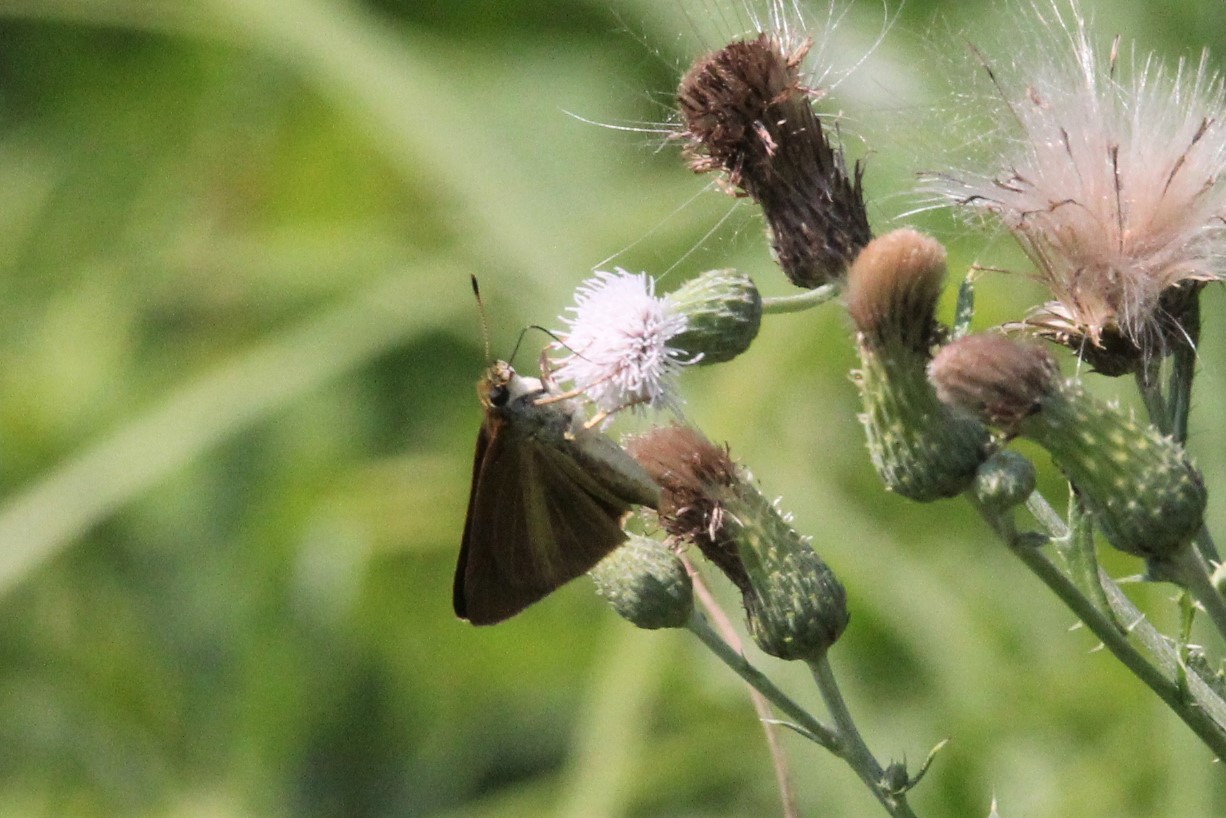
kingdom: Animalia
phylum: Arthropoda
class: Insecta
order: Lepidoptera
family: Hesperiidae
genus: Euphyes
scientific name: Euphyes dukesi
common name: Dukes' skipper
